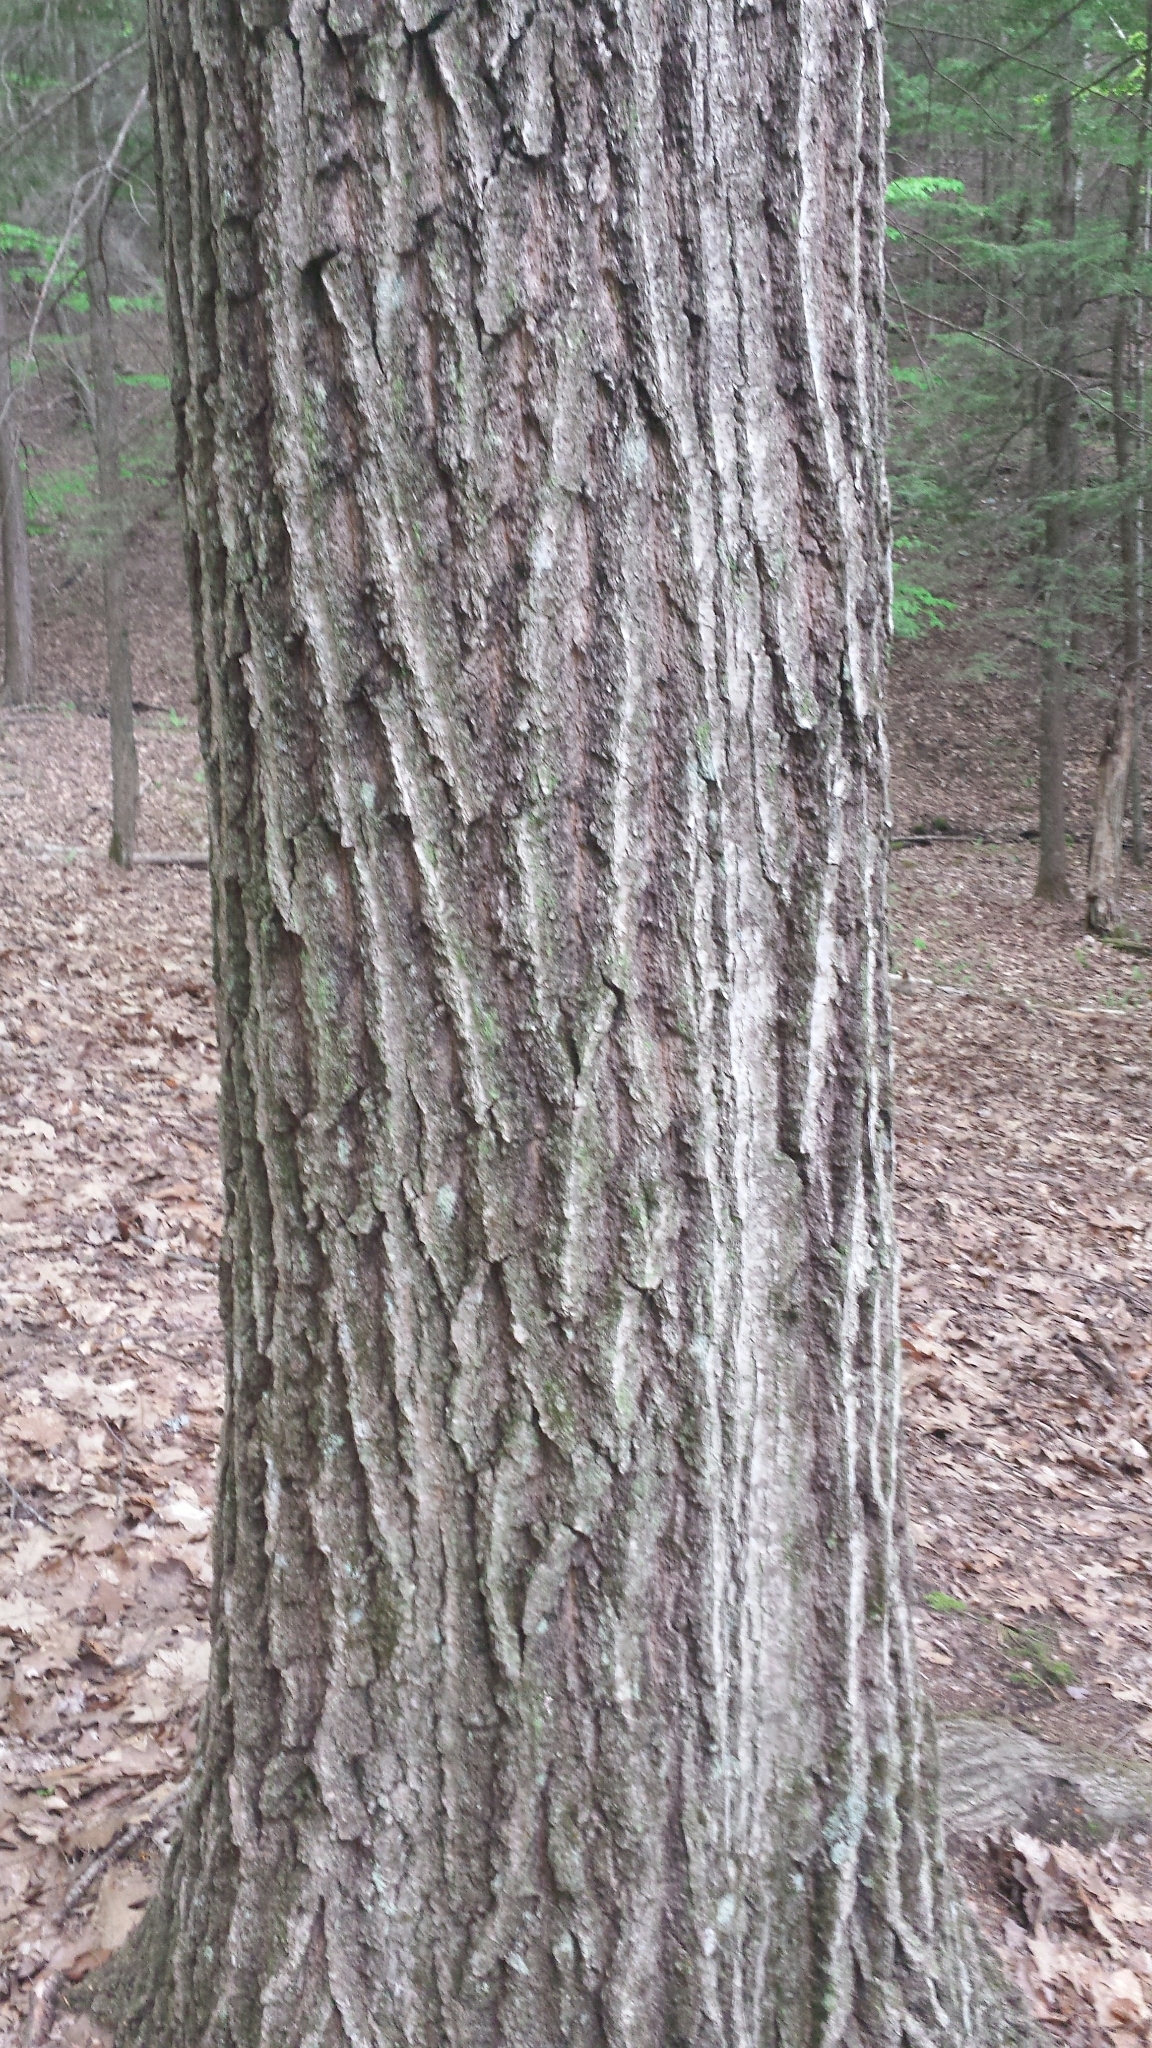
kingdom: Plantae
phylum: Tracheophyta
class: Magnoliopsida
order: Fagales
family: Fagaceae
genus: Quercus
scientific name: Quercus rubra
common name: Red oak
